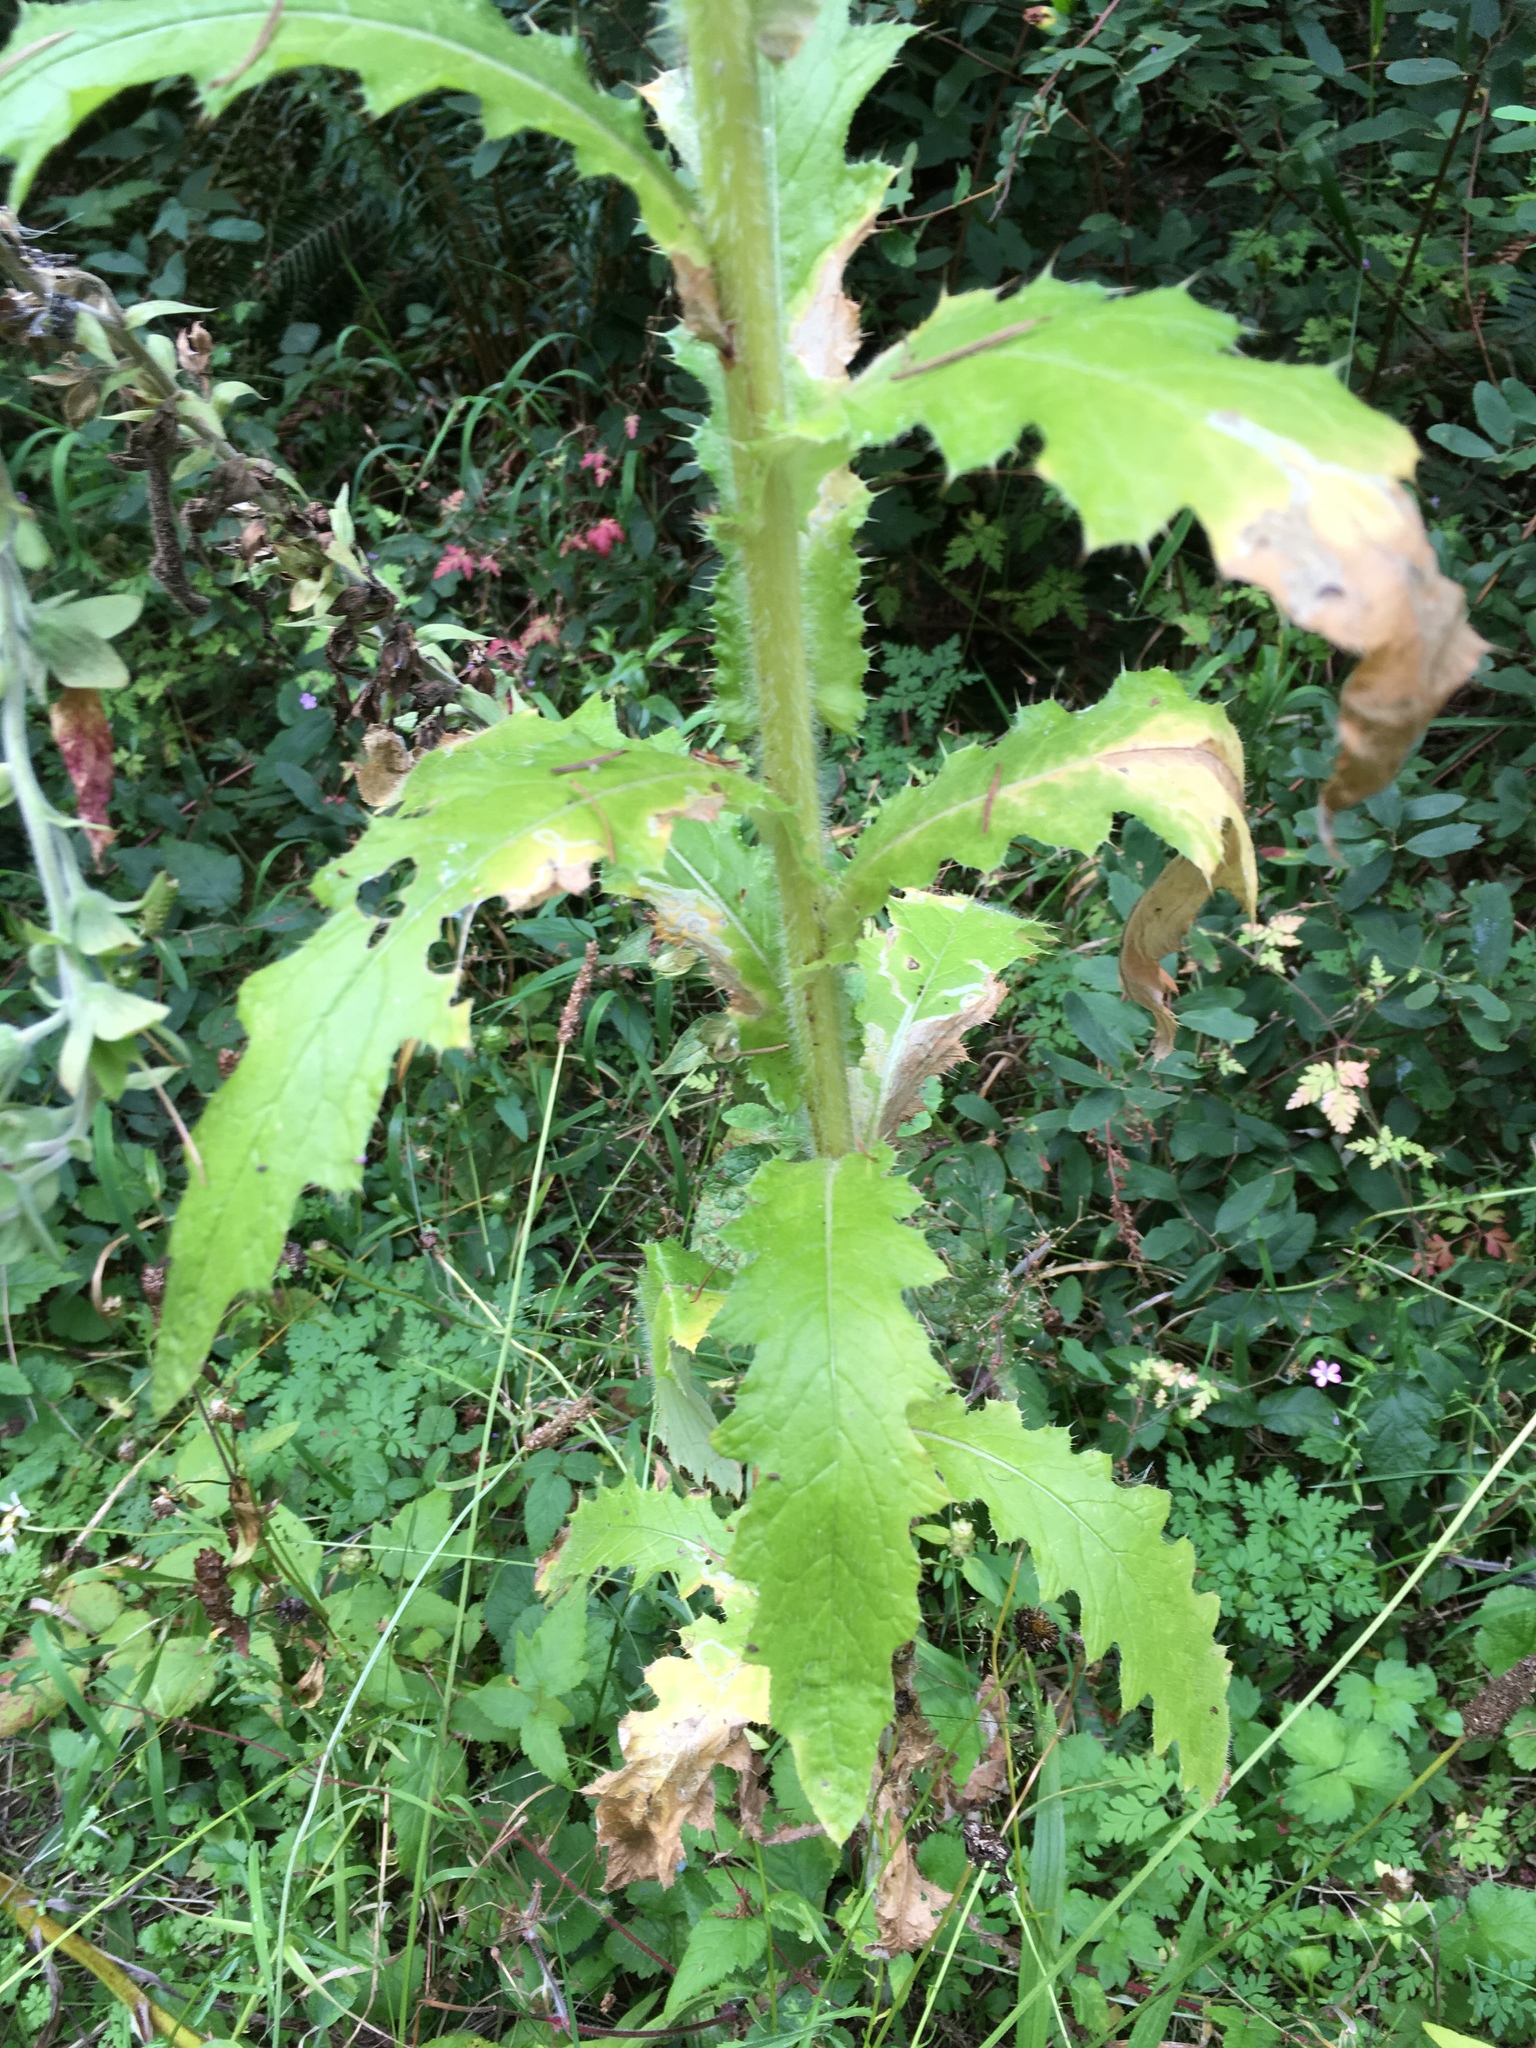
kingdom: Plantae
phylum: Tracheophyta
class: Magnoliopsida
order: Asterales
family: Asteraceae
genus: Cirsium
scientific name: Cirsium brevistylum
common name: Indian thistle
